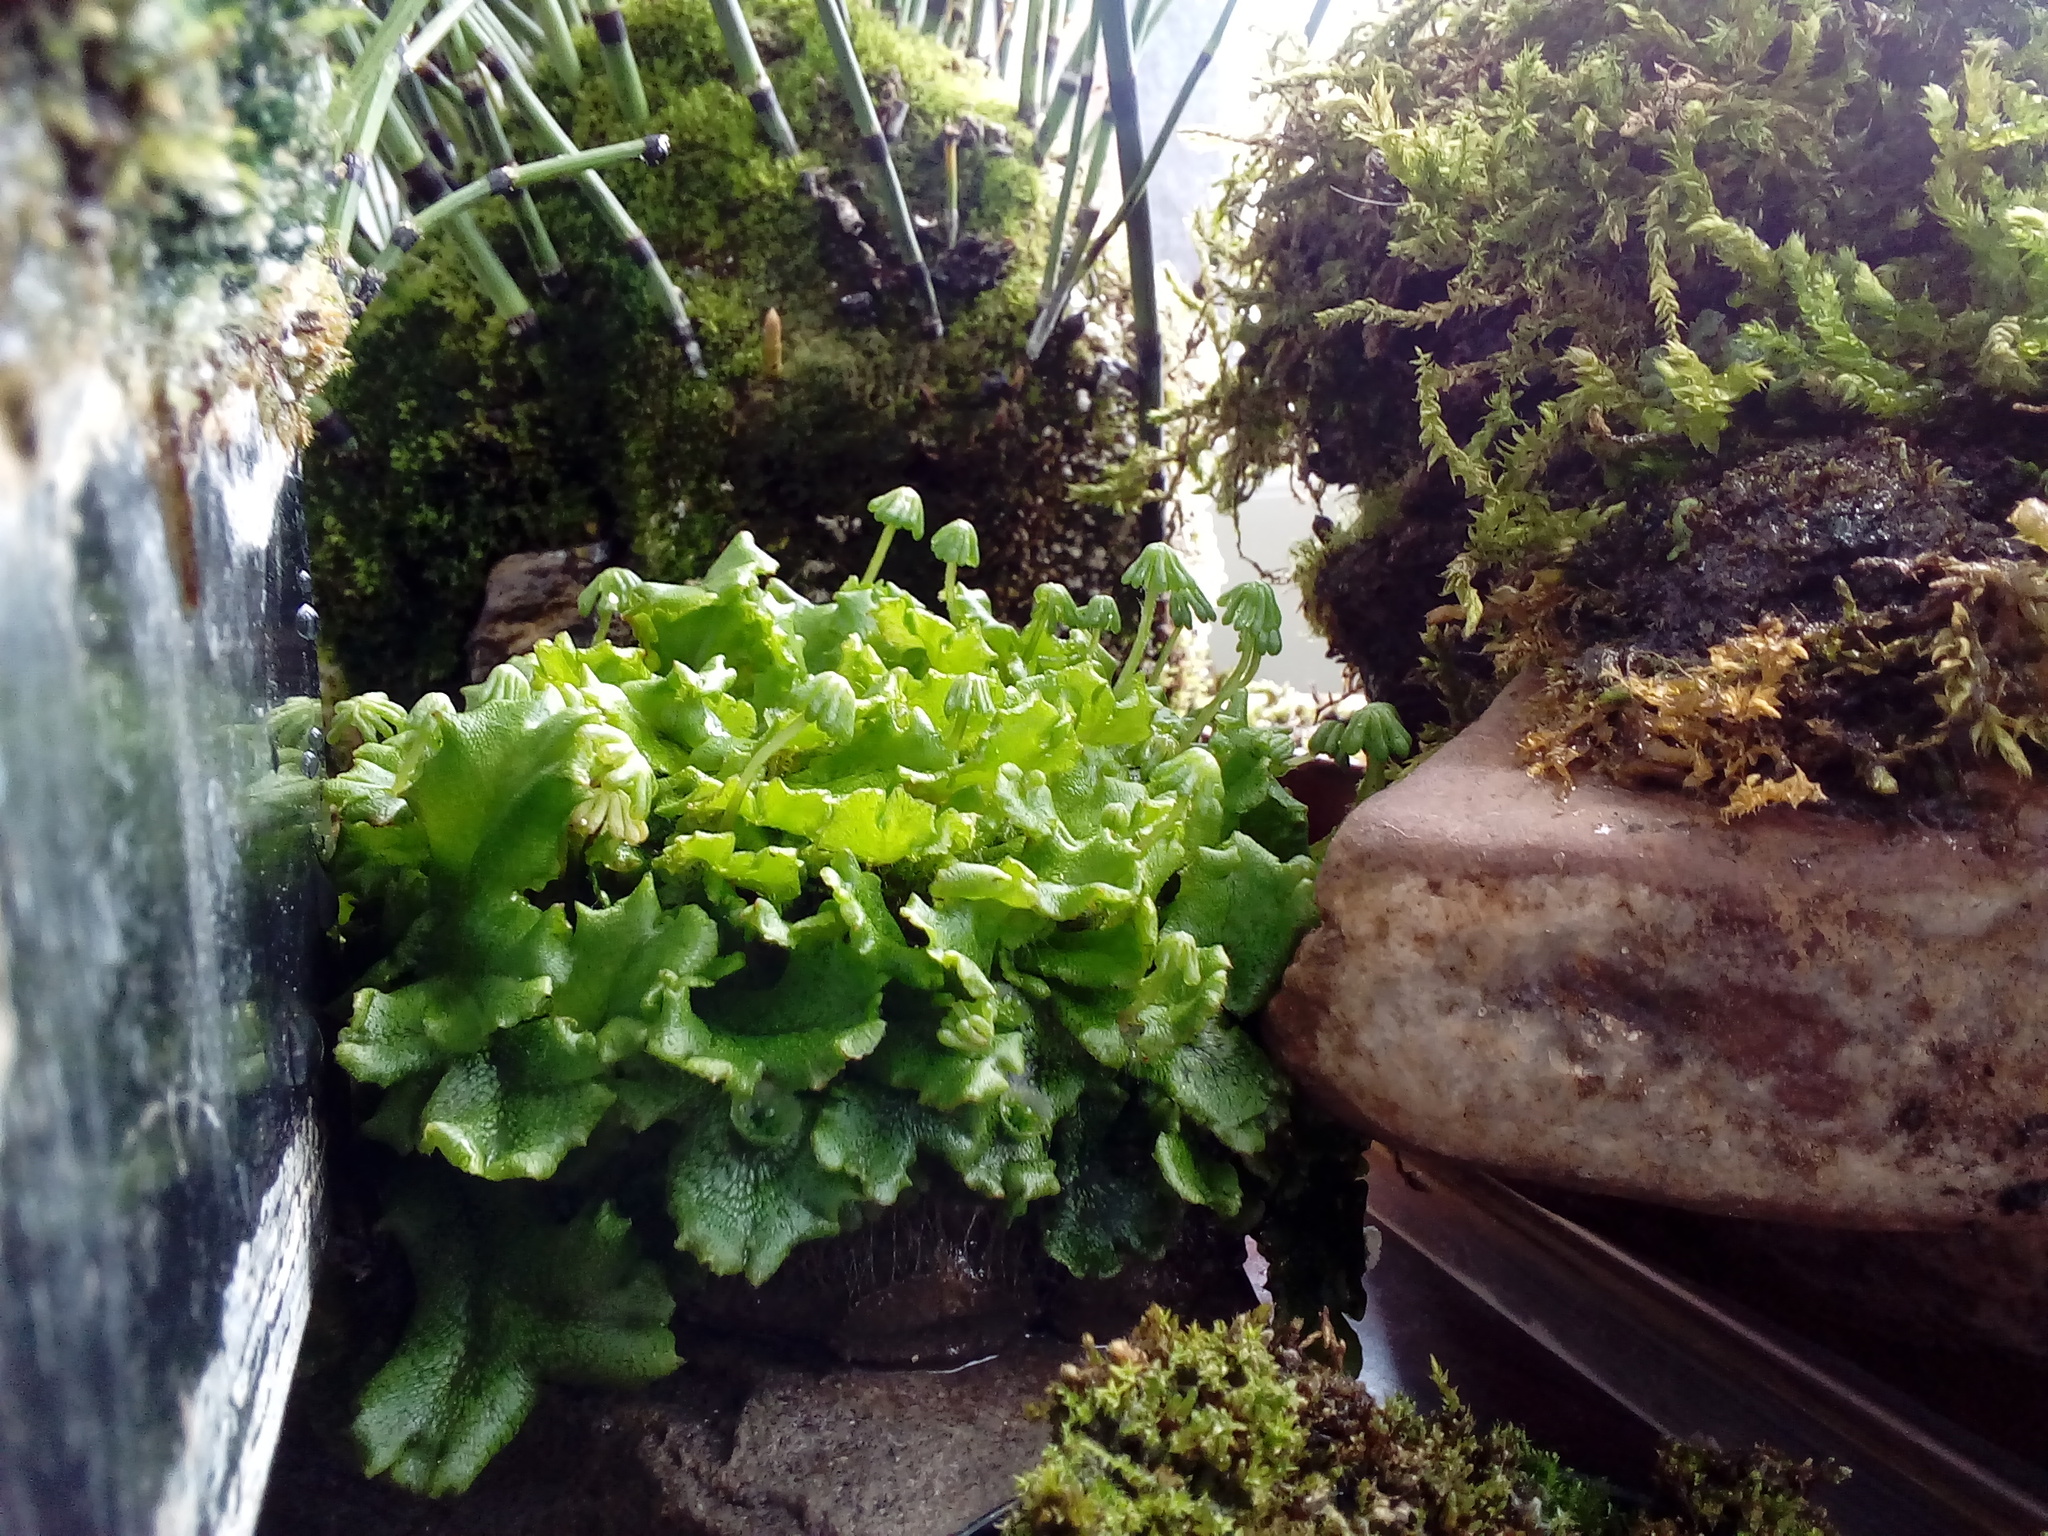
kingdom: Plantae
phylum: Marchantiophyta
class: Marchantiopsida
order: Marchantiales
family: Marchantiaceae
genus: Marchantia
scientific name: Marchantia polymorpha
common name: Common liverwort
